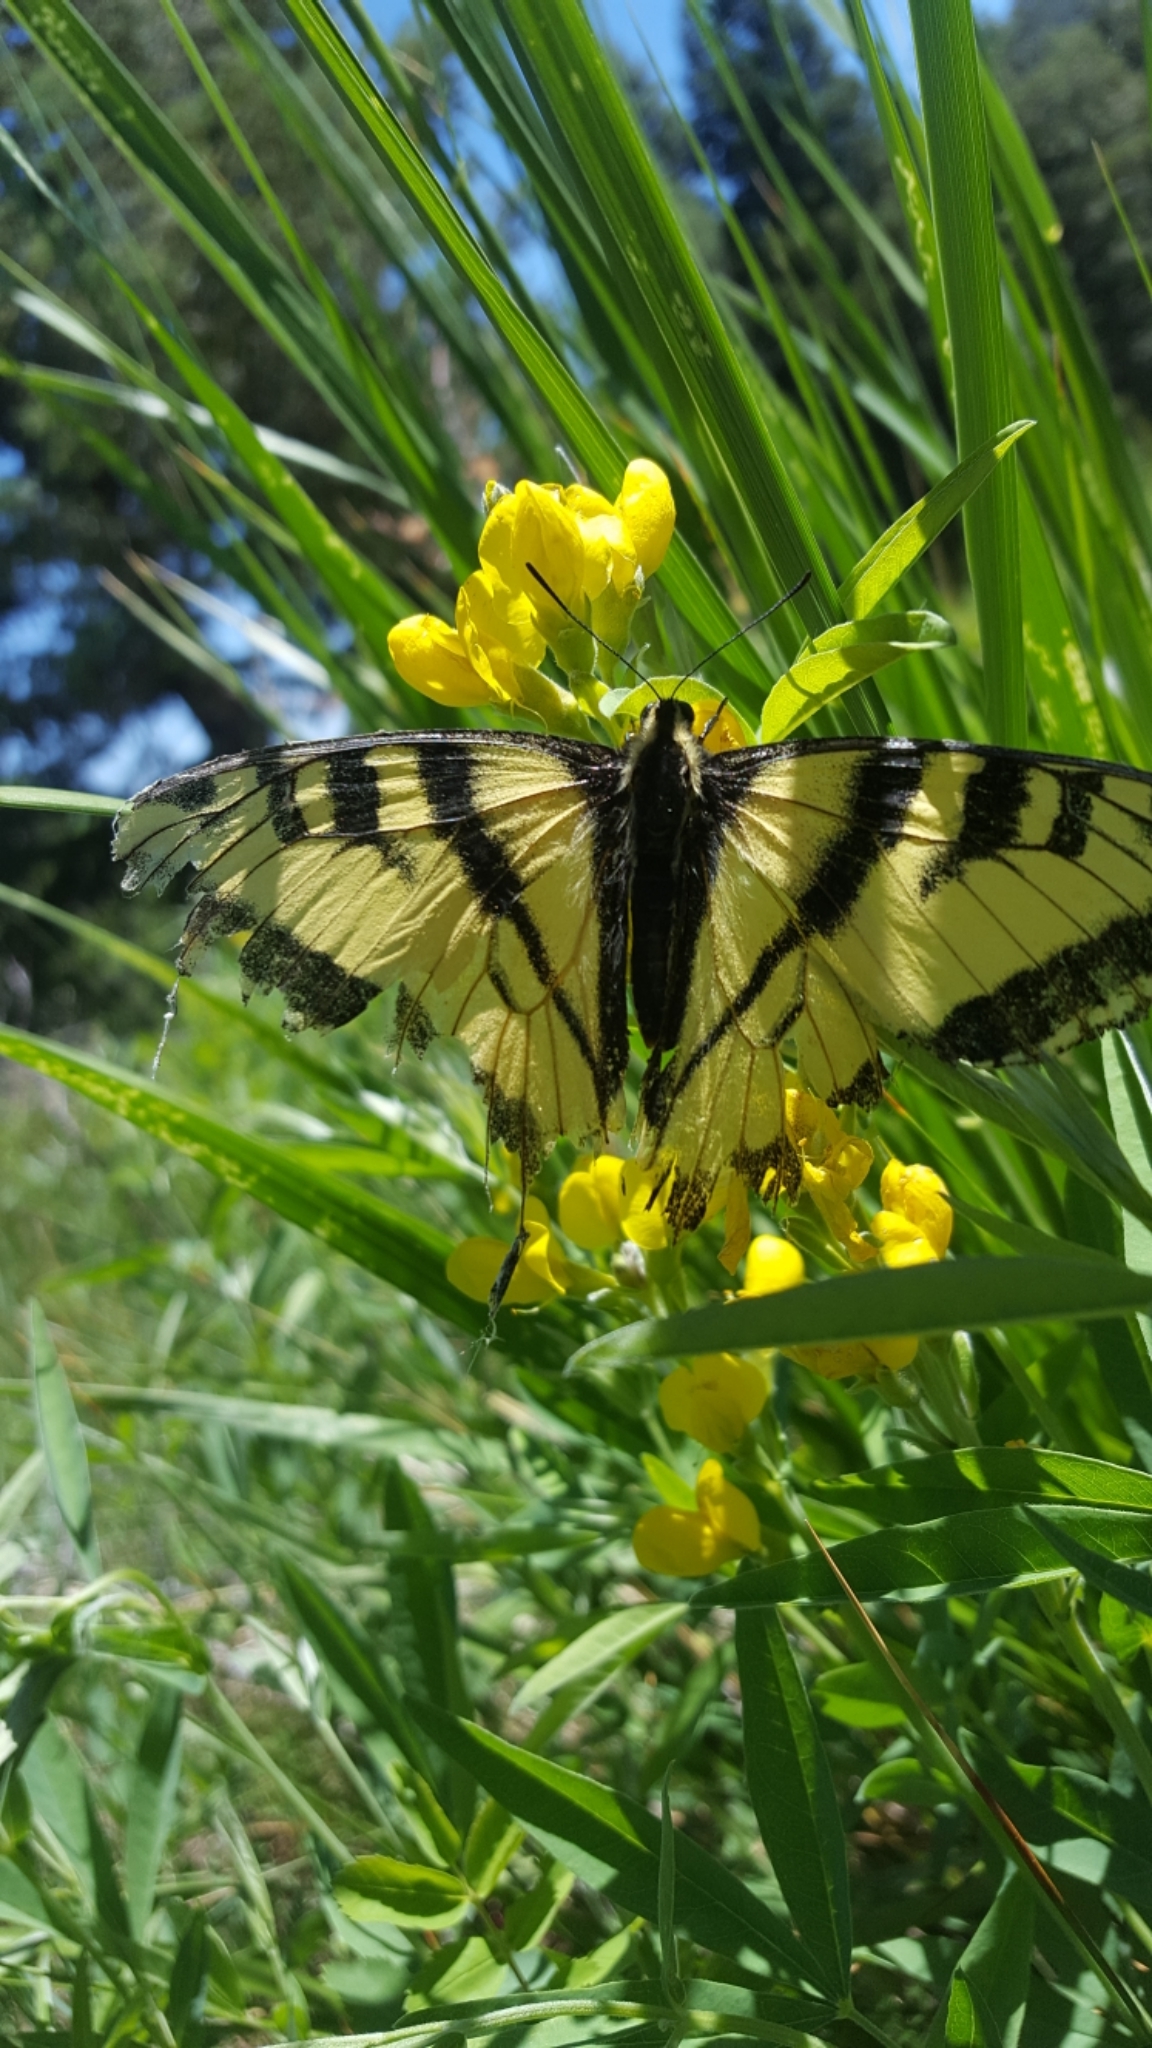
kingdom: Animalia
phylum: Arthropoda
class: Insecta
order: Lepidoptera
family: Papilionidae
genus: Papilio
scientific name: Papilio rutulus
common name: Western tiger swallowtail
